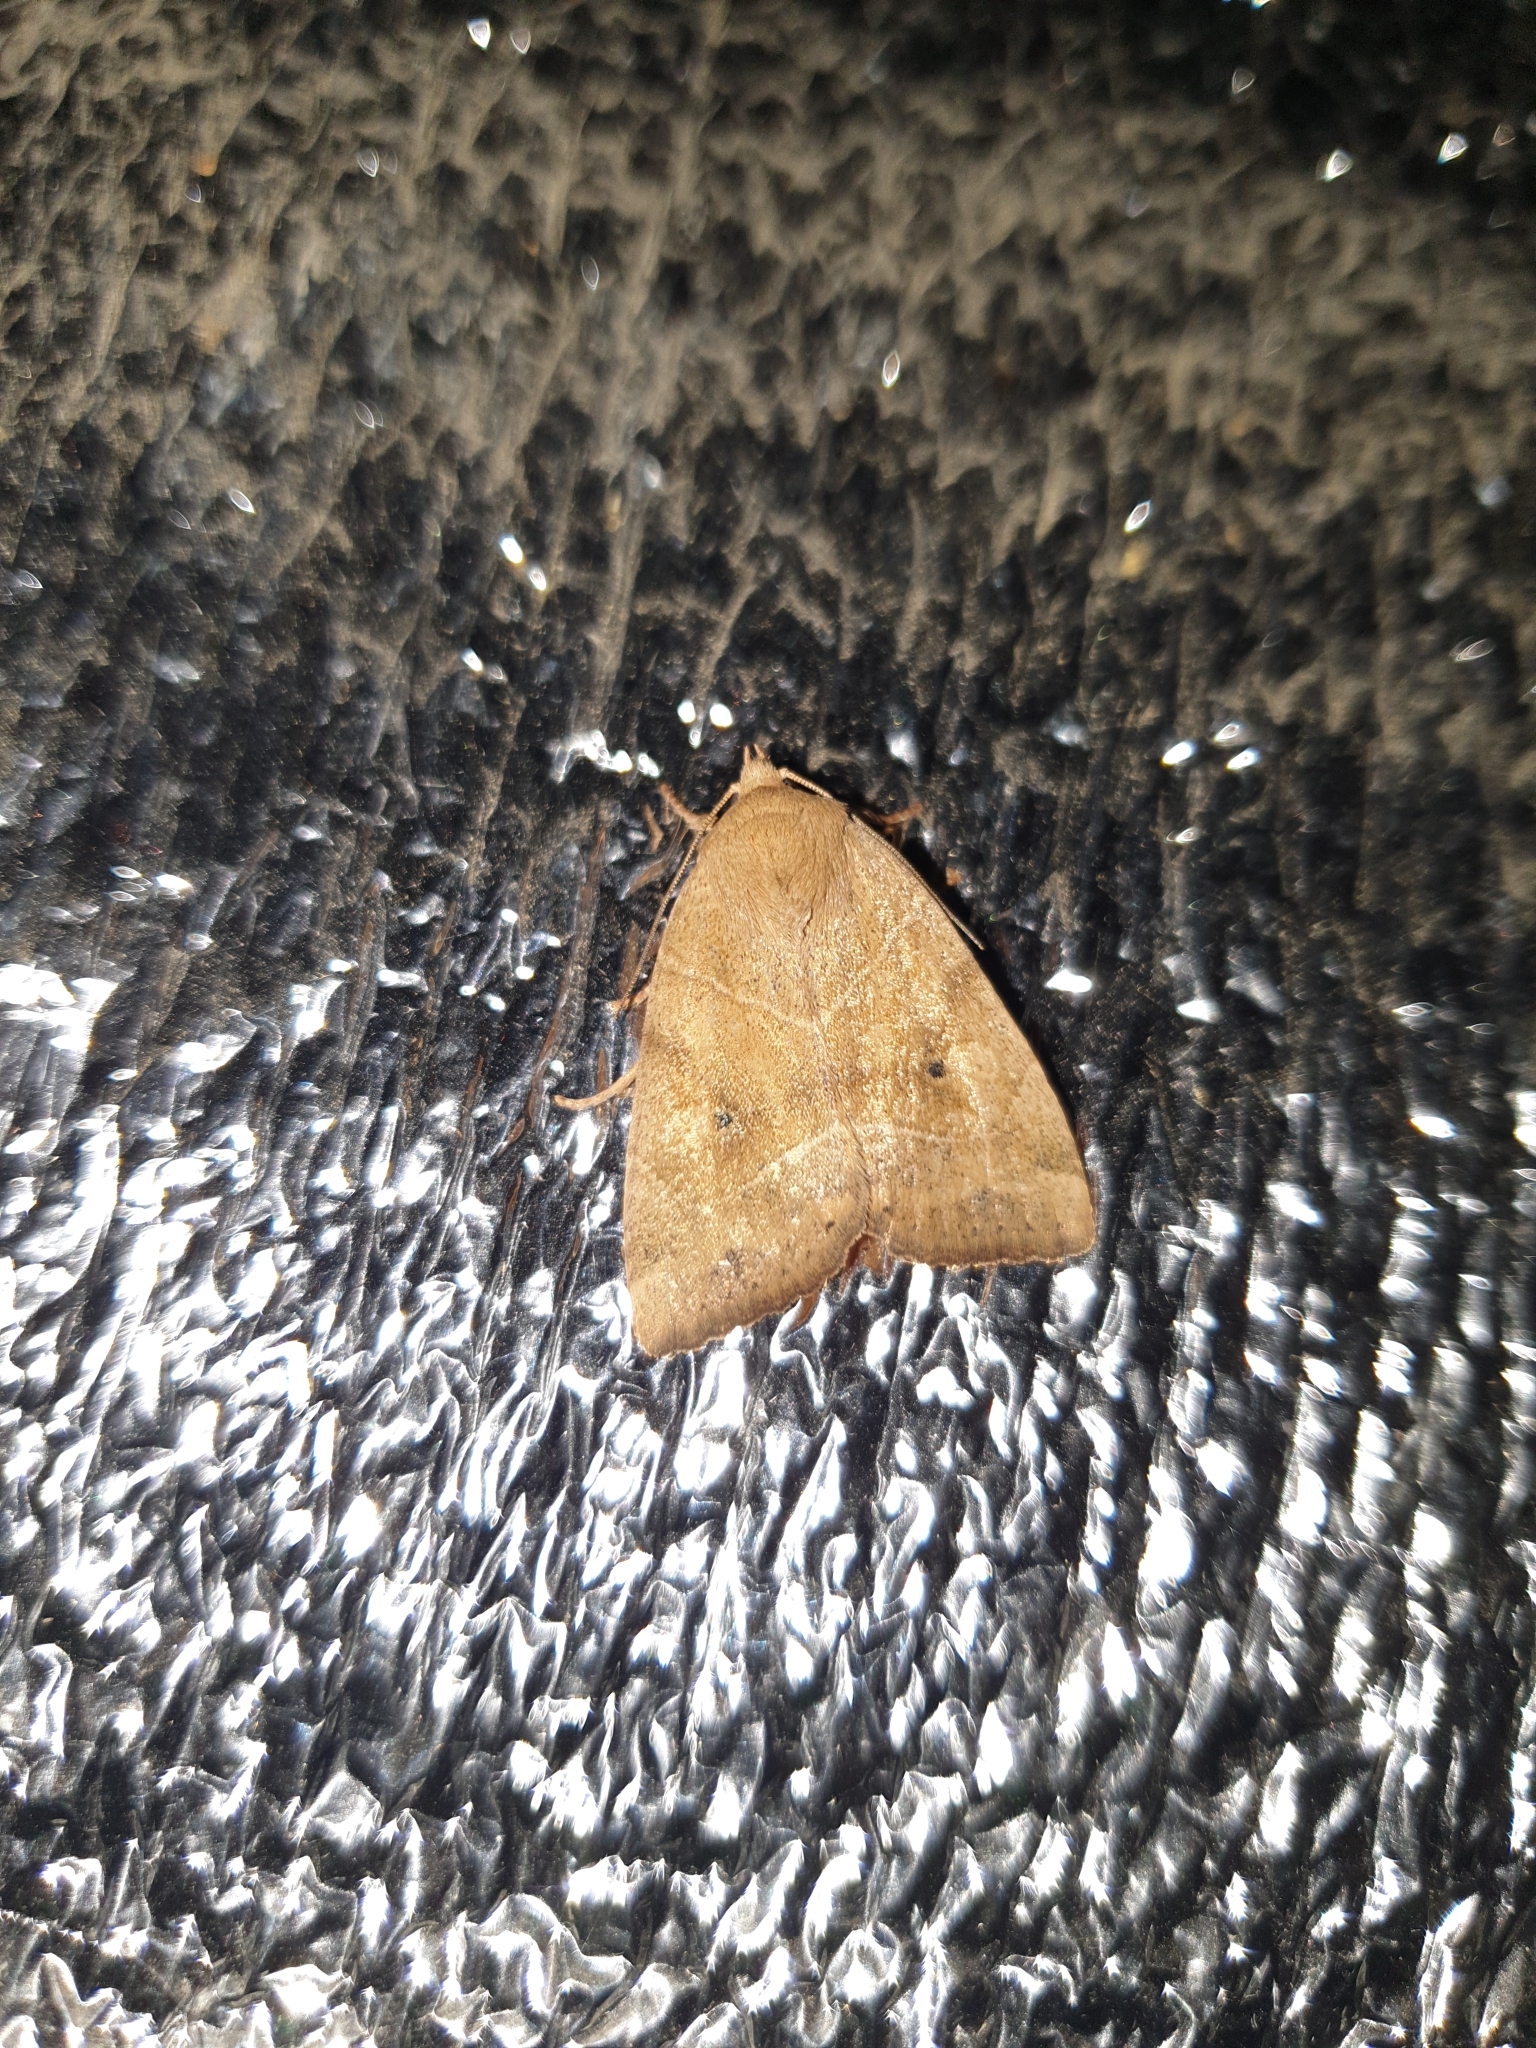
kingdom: Animalia
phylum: Arthropoda
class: Insecta
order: Lepidoptera
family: Noctuidae
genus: Cosmia
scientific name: Cosmia trapezina
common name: Dun-bar
